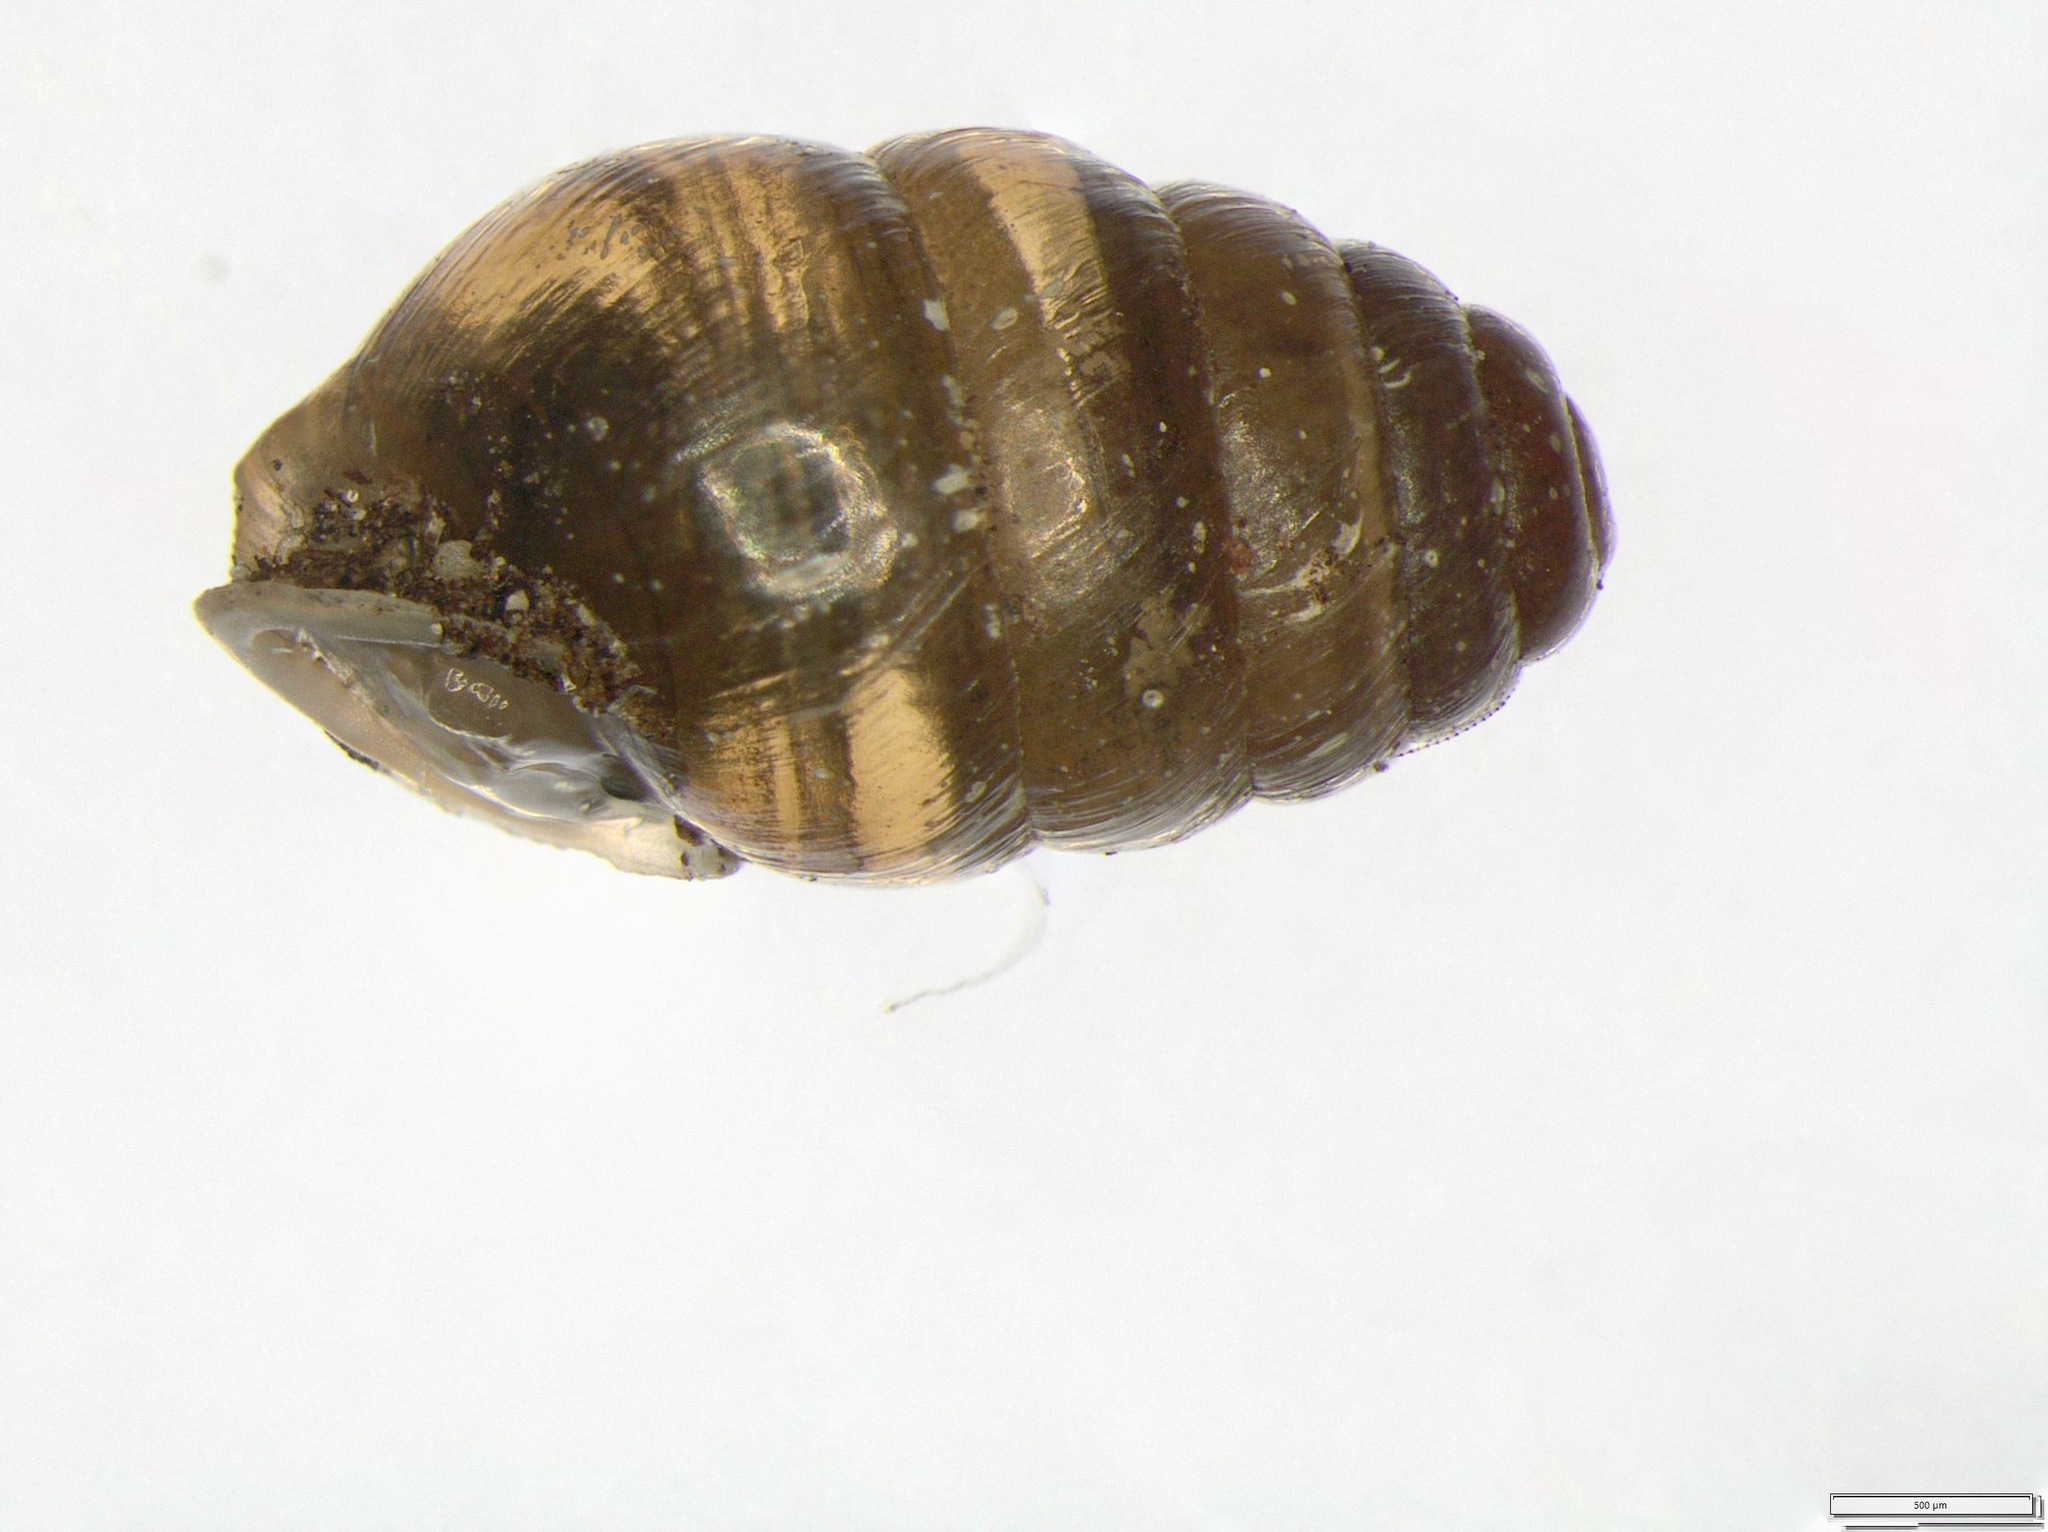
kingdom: Animalia
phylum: Mollusca
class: Gastropoda
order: Stylommatophora
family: Lauriidae
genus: Lauria
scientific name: Lauria cylindracea
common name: Common chrysalis snail
